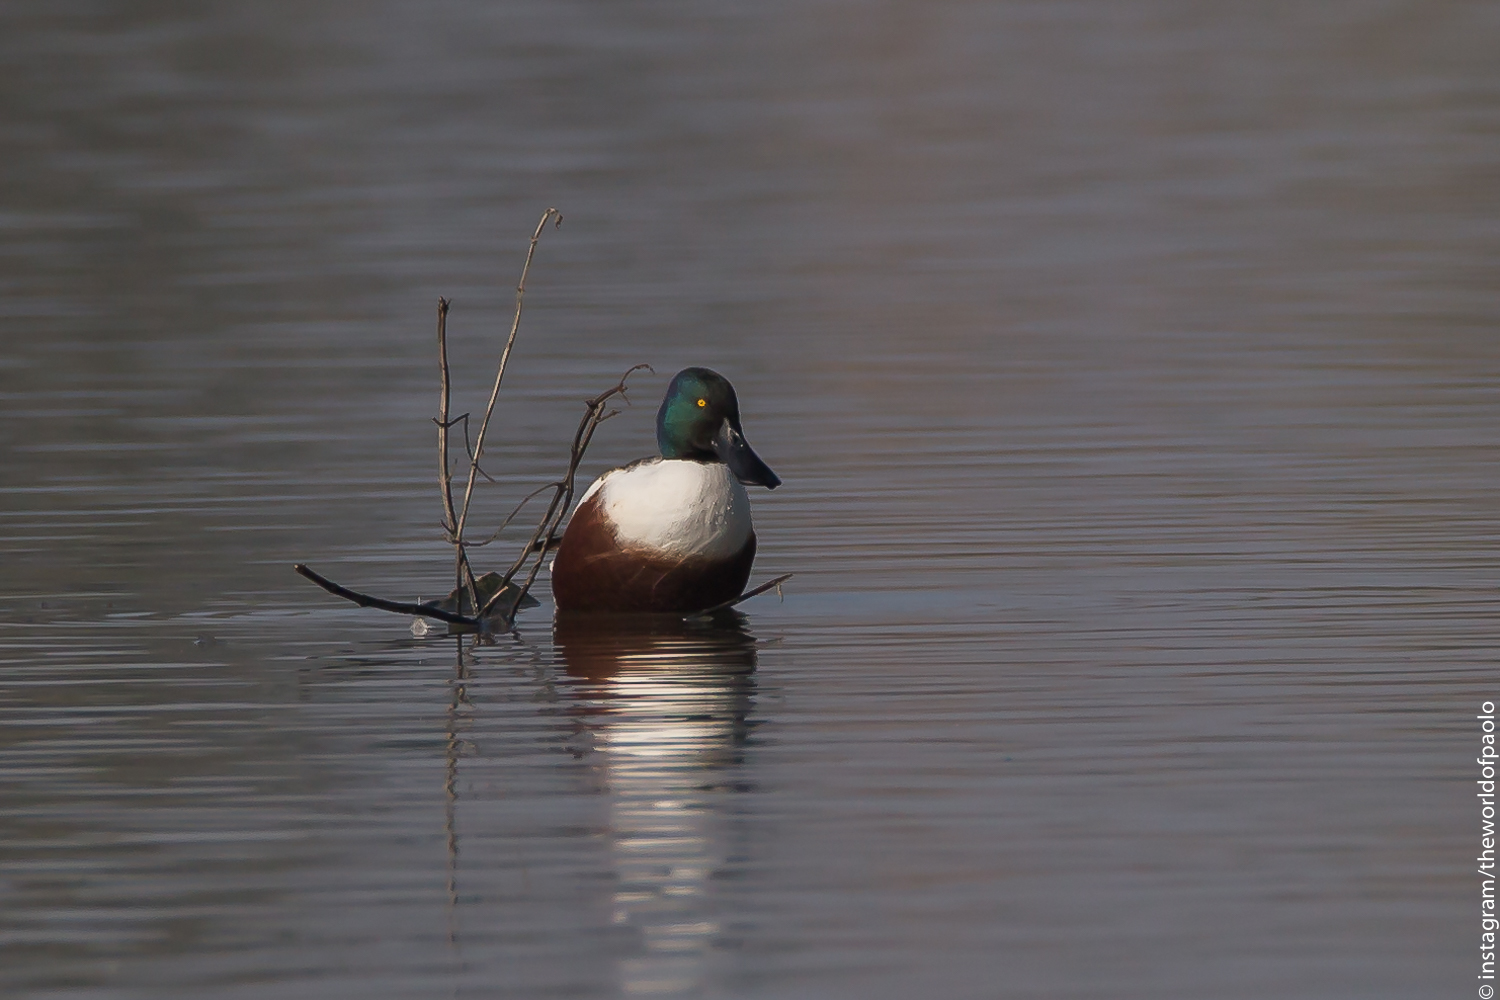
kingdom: Animalia
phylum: Chordata
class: Aves
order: Anseriformes
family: Anatidae
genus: Spatula
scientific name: Spatula clypeata
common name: Northern shoveler
